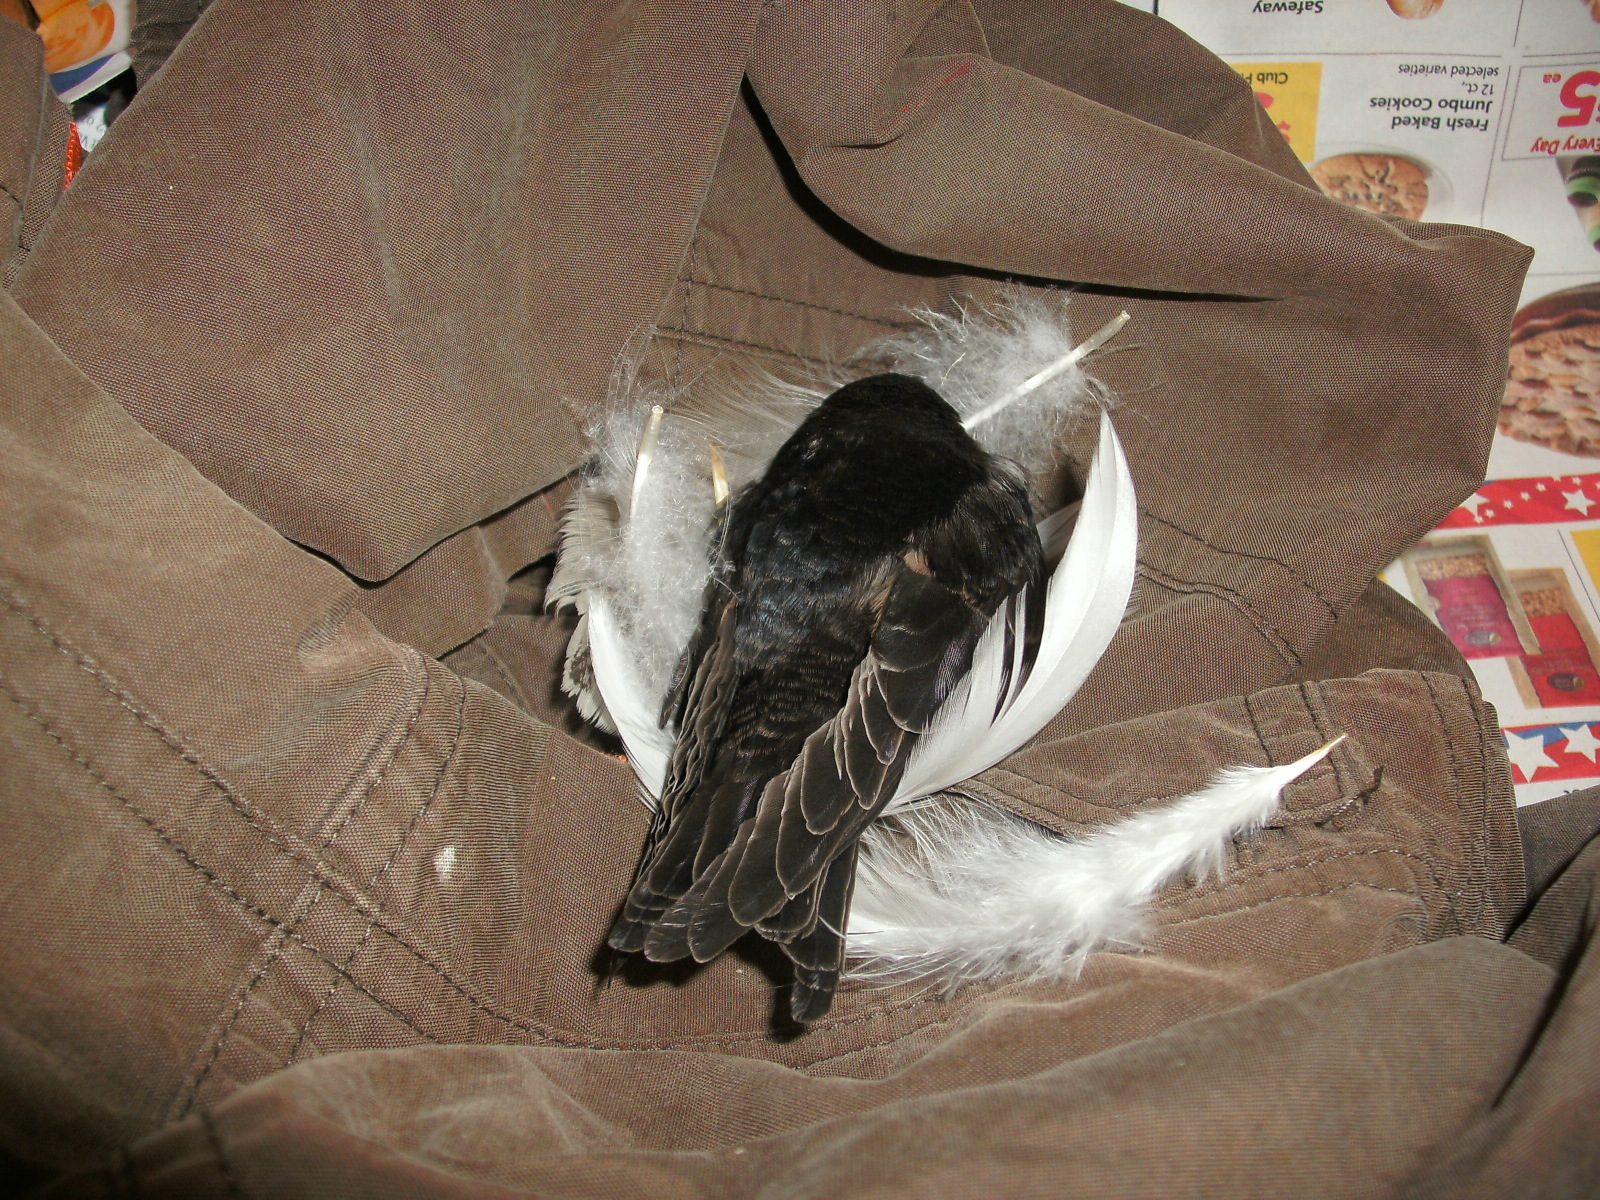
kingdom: Animalia
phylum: Chordata
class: Aves
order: Passeriformes
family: Hirundinidae
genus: Hirundo
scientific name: Hirundo rustica
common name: Barn swallow
